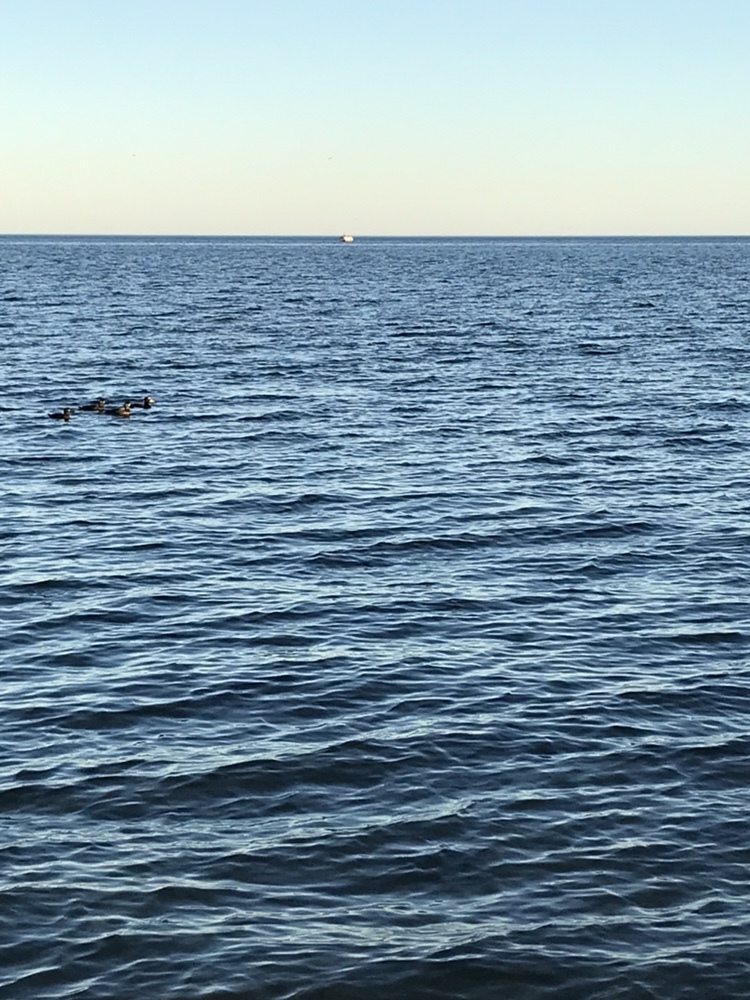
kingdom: Animalia
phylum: Chordata
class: Aves
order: Anseriformes
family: Anatidae
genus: Melanitta
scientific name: Melanitta perspicillata
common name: Surf scoter
